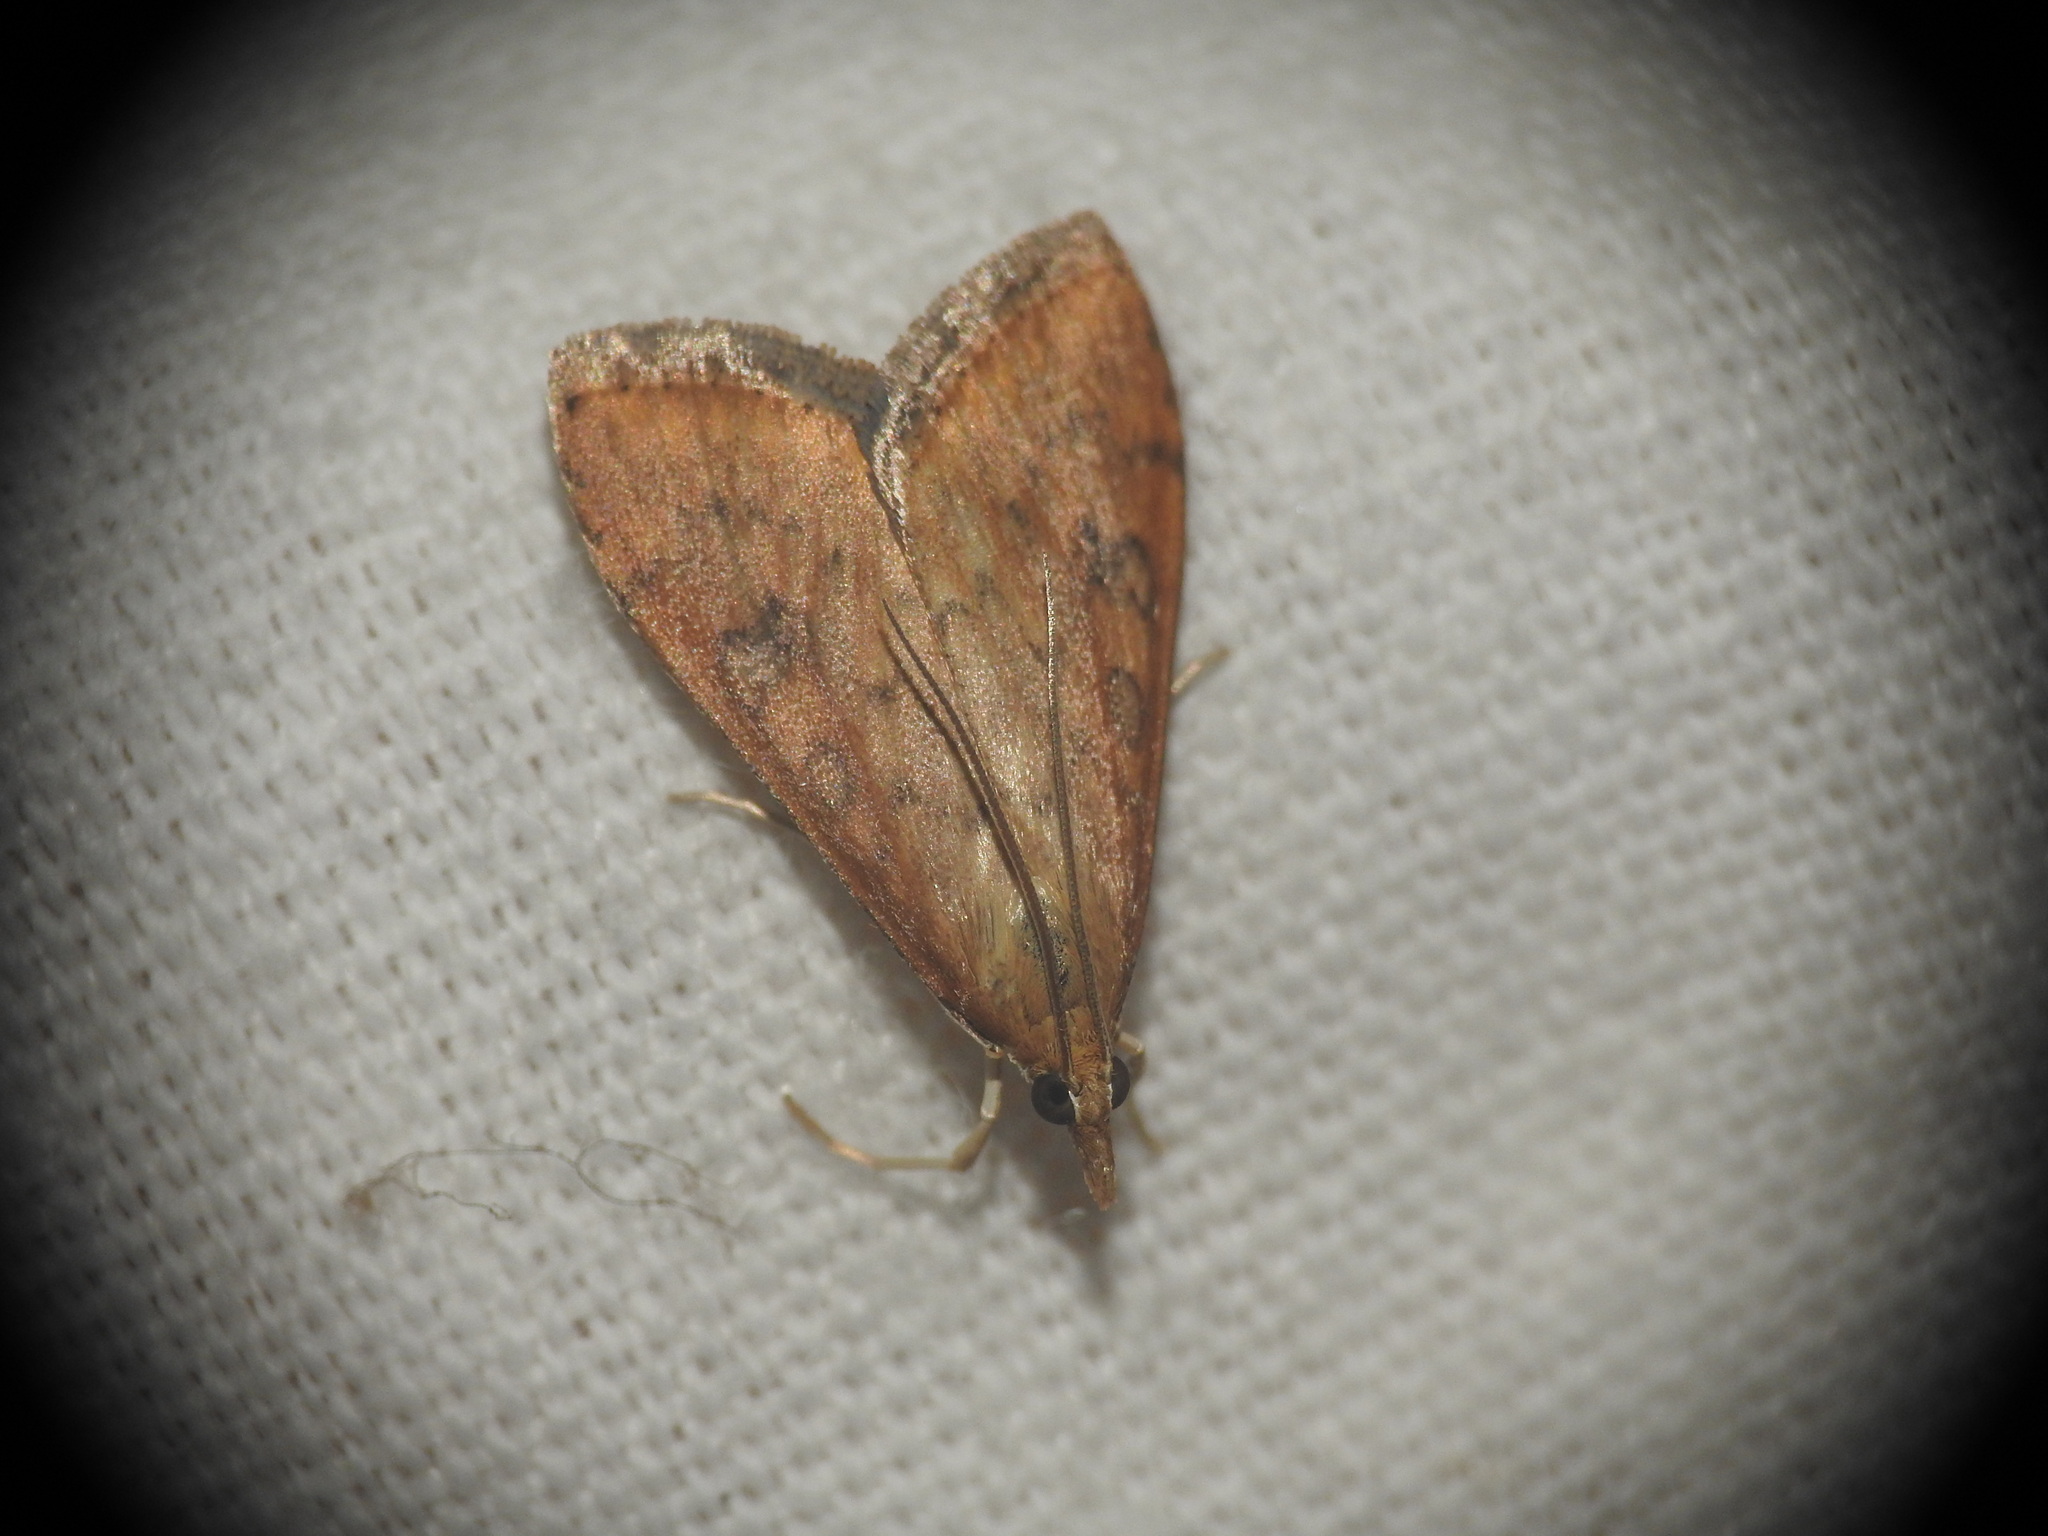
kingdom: Animalia
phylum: Arthropoda
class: Insecta
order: Lepidoptera
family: Crambidae
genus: Udea
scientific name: Udea ferrugalis
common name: Rusty dot
